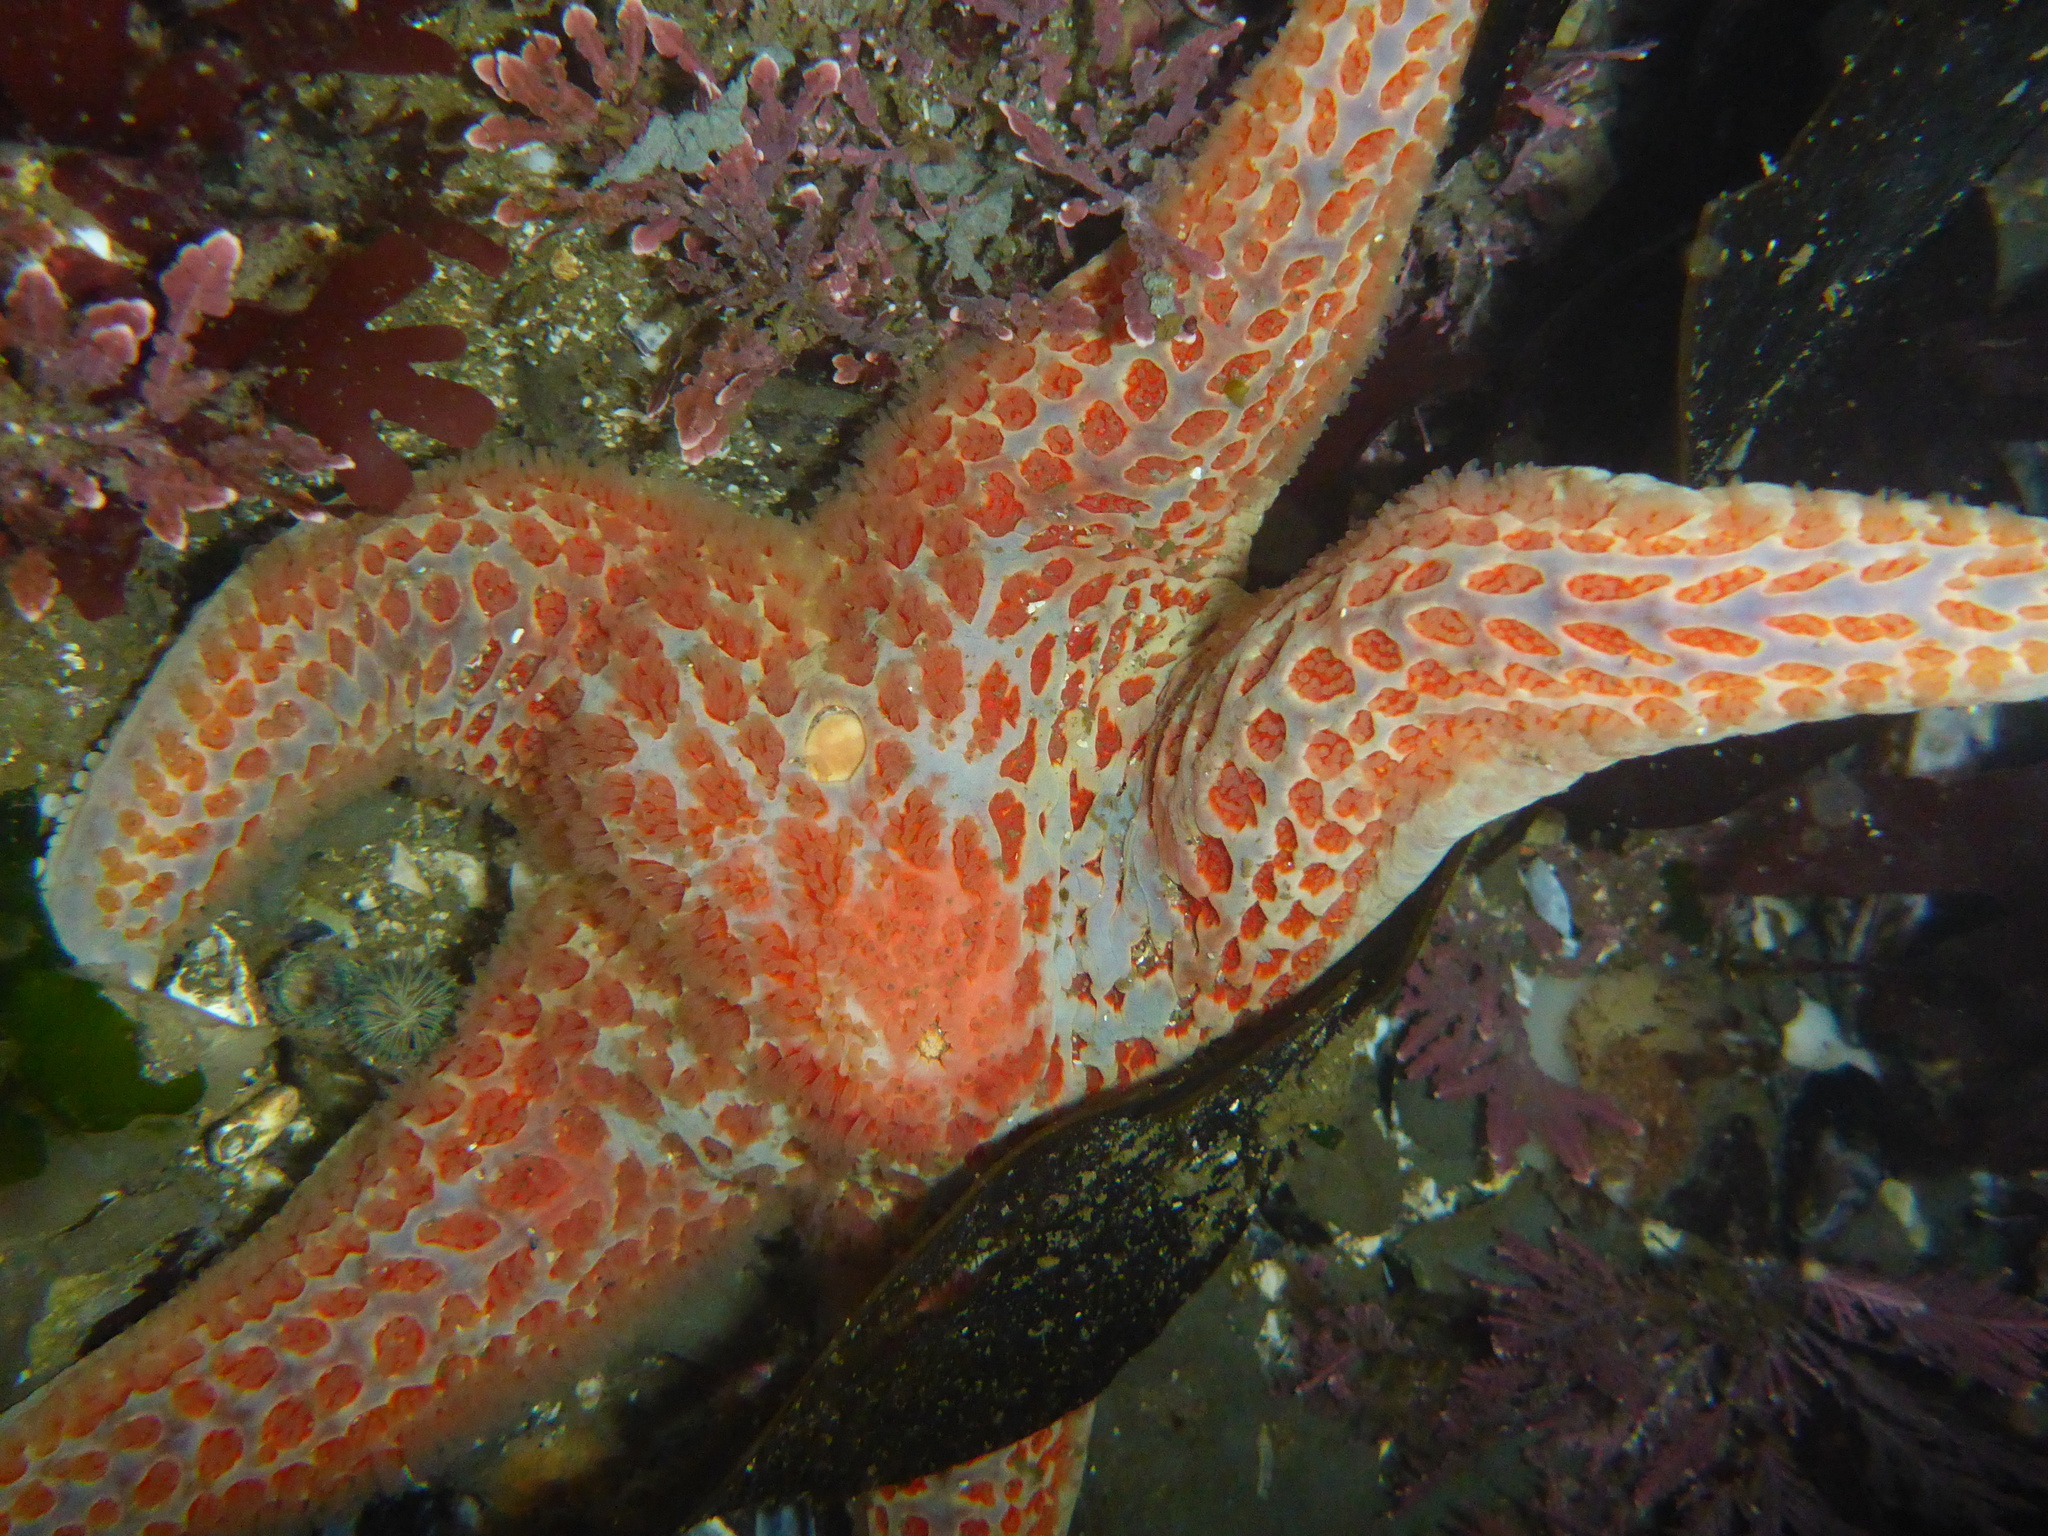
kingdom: Animalia
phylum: Echinodermata
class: Asteroidea
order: Valvatida
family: Asteropseidae
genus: Dermasterias
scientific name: Dermasterias imbricata
